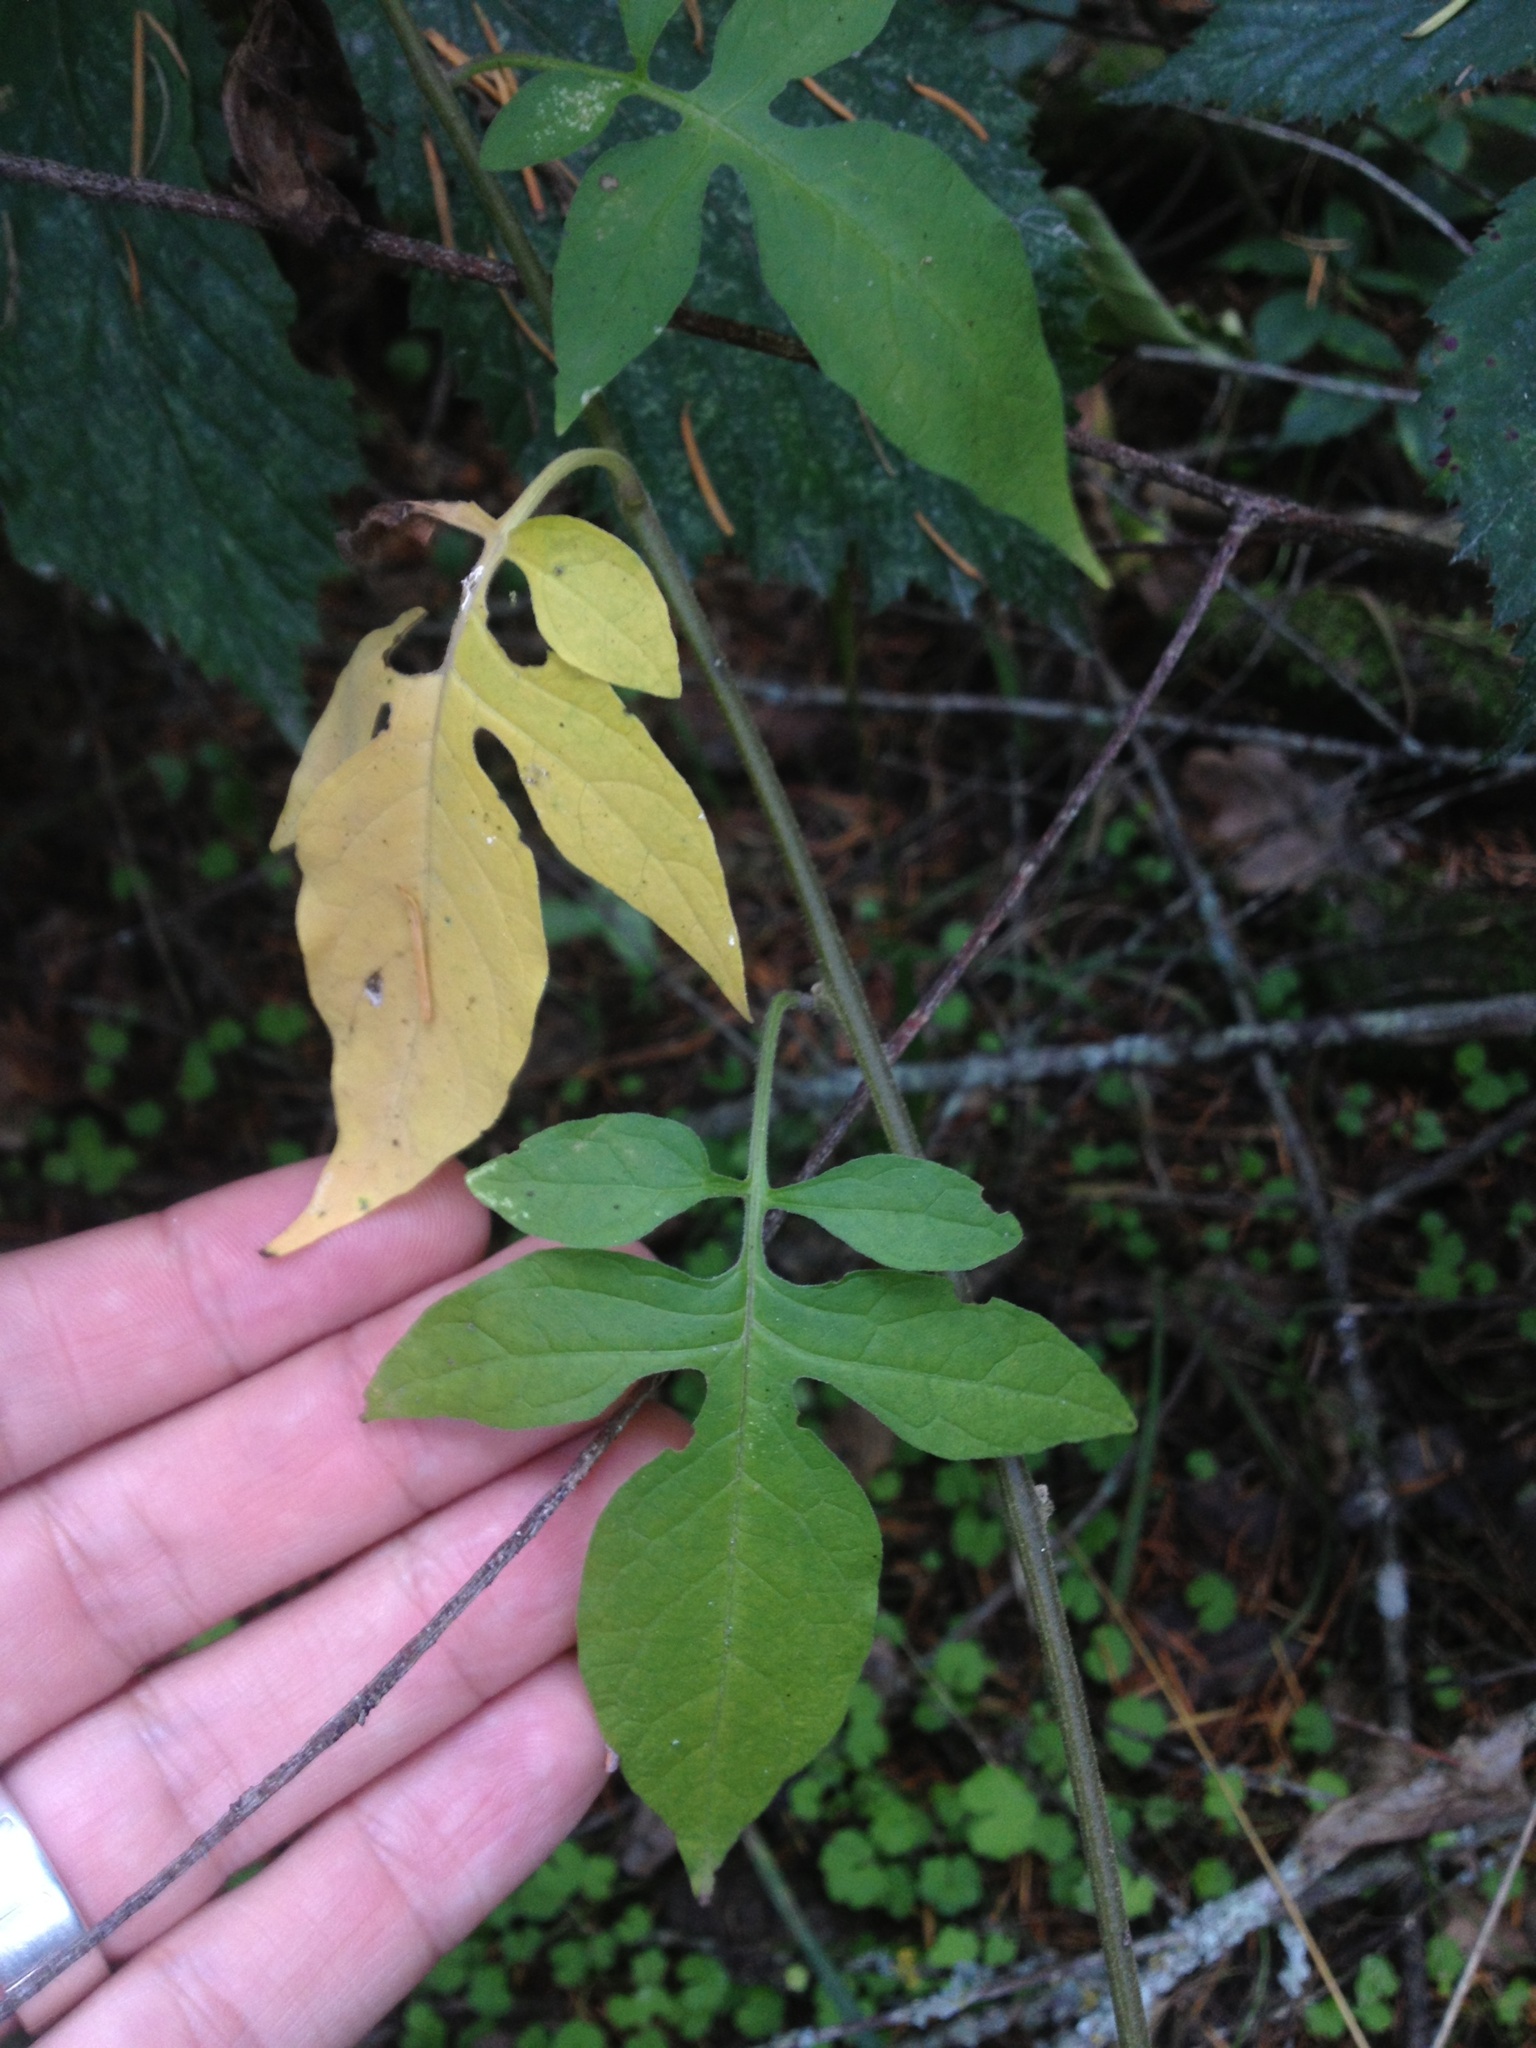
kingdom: Plantae
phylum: Tracheophyta
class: Magnoliopsida
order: Solanales
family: Solanaceae
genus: Solanum
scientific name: Solanum dulcamara
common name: Climbing nightshade
